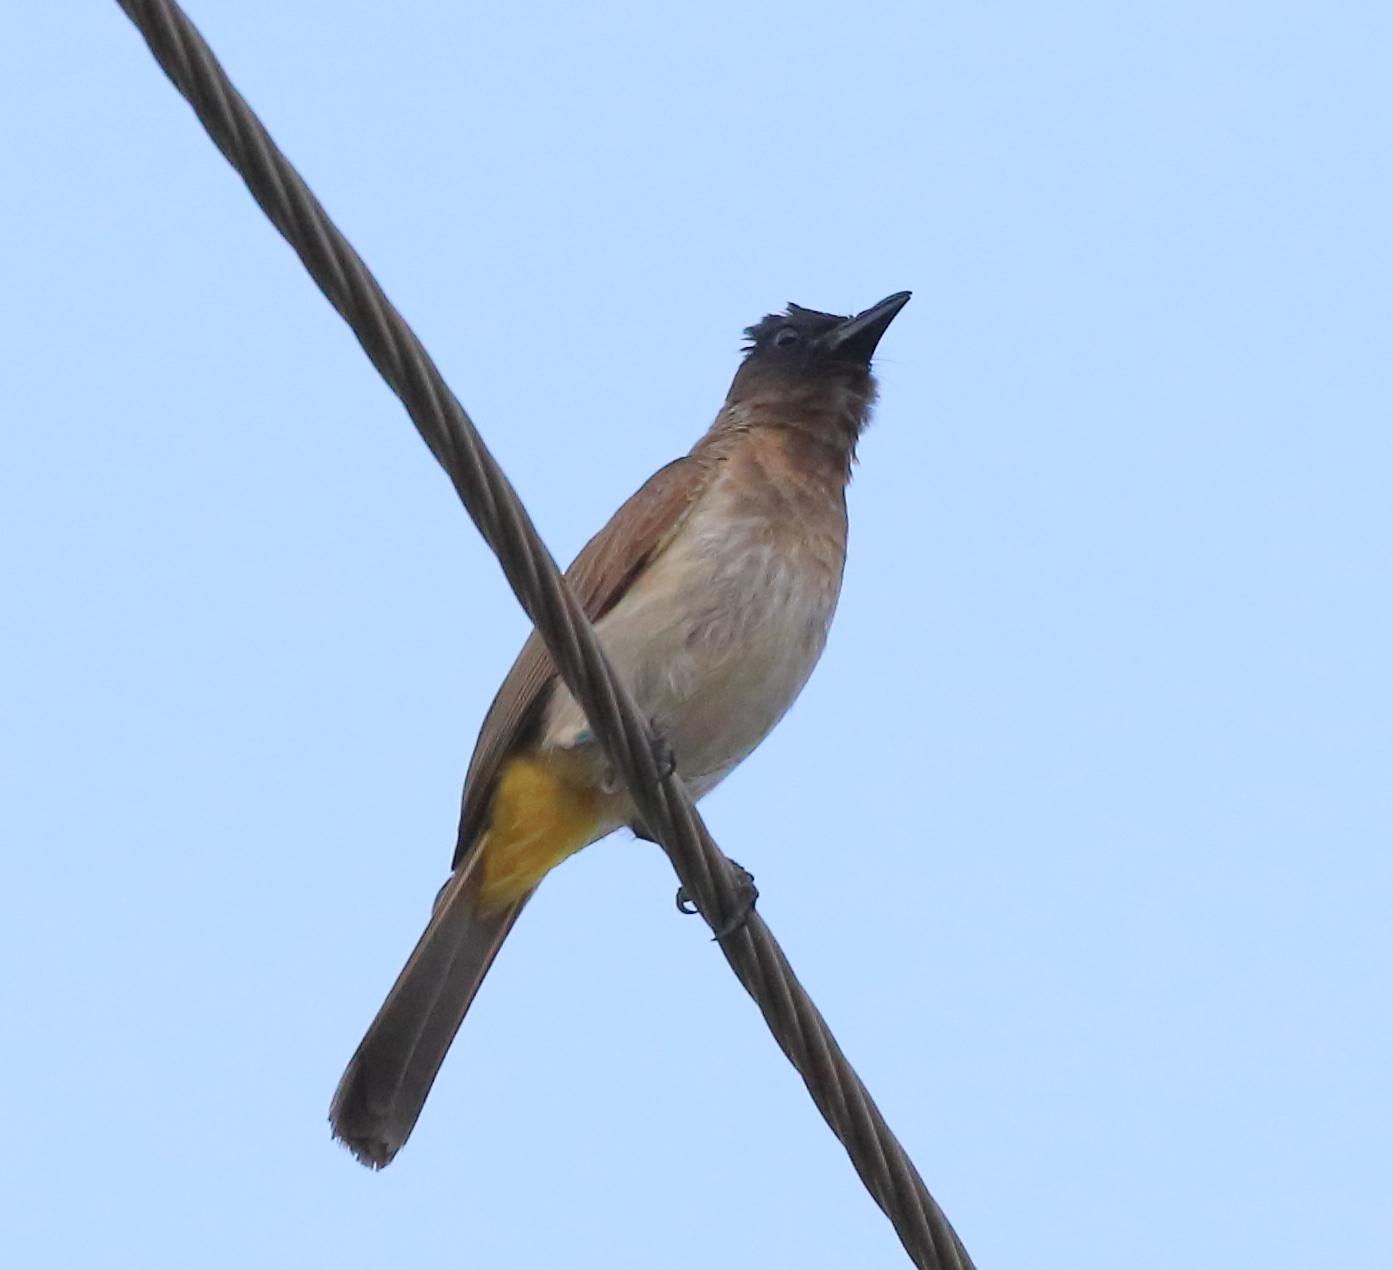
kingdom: Animalia
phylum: Chordata
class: Aves
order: Passeriformes
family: Pycnonotidae
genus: Pycnonotus
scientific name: Pycnonotus barbatus
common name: Common bulbul
